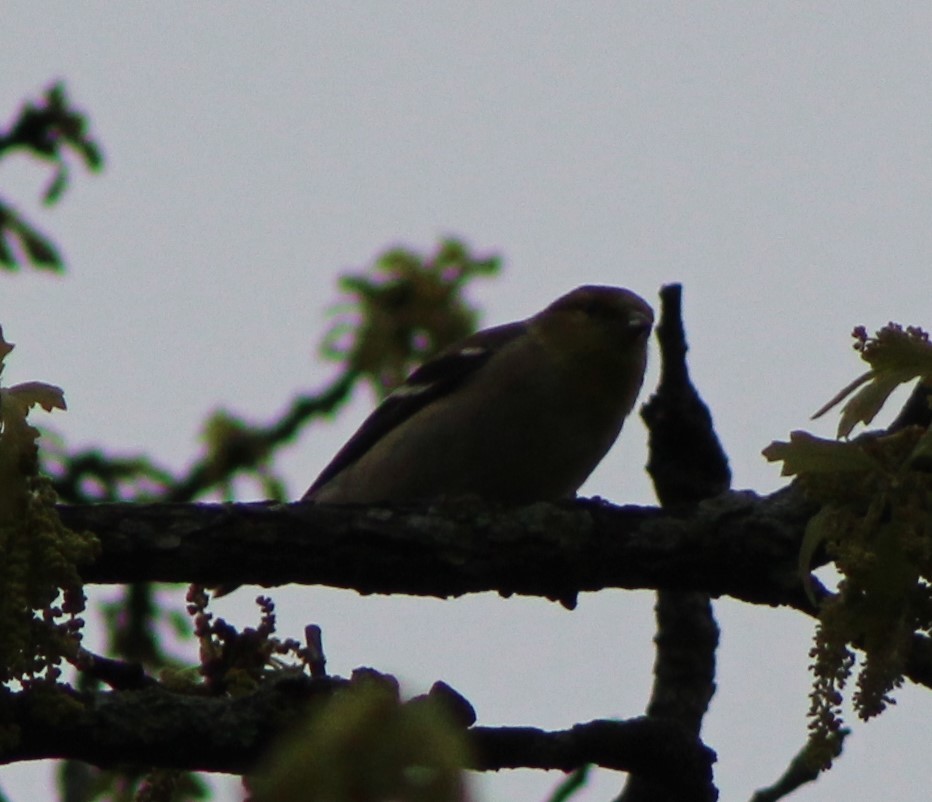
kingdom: Animalia
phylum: Chordata
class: Aves
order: Passeriformes
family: Fringillidae
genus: Spinus
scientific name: Spinus tristis
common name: American goldfinch
